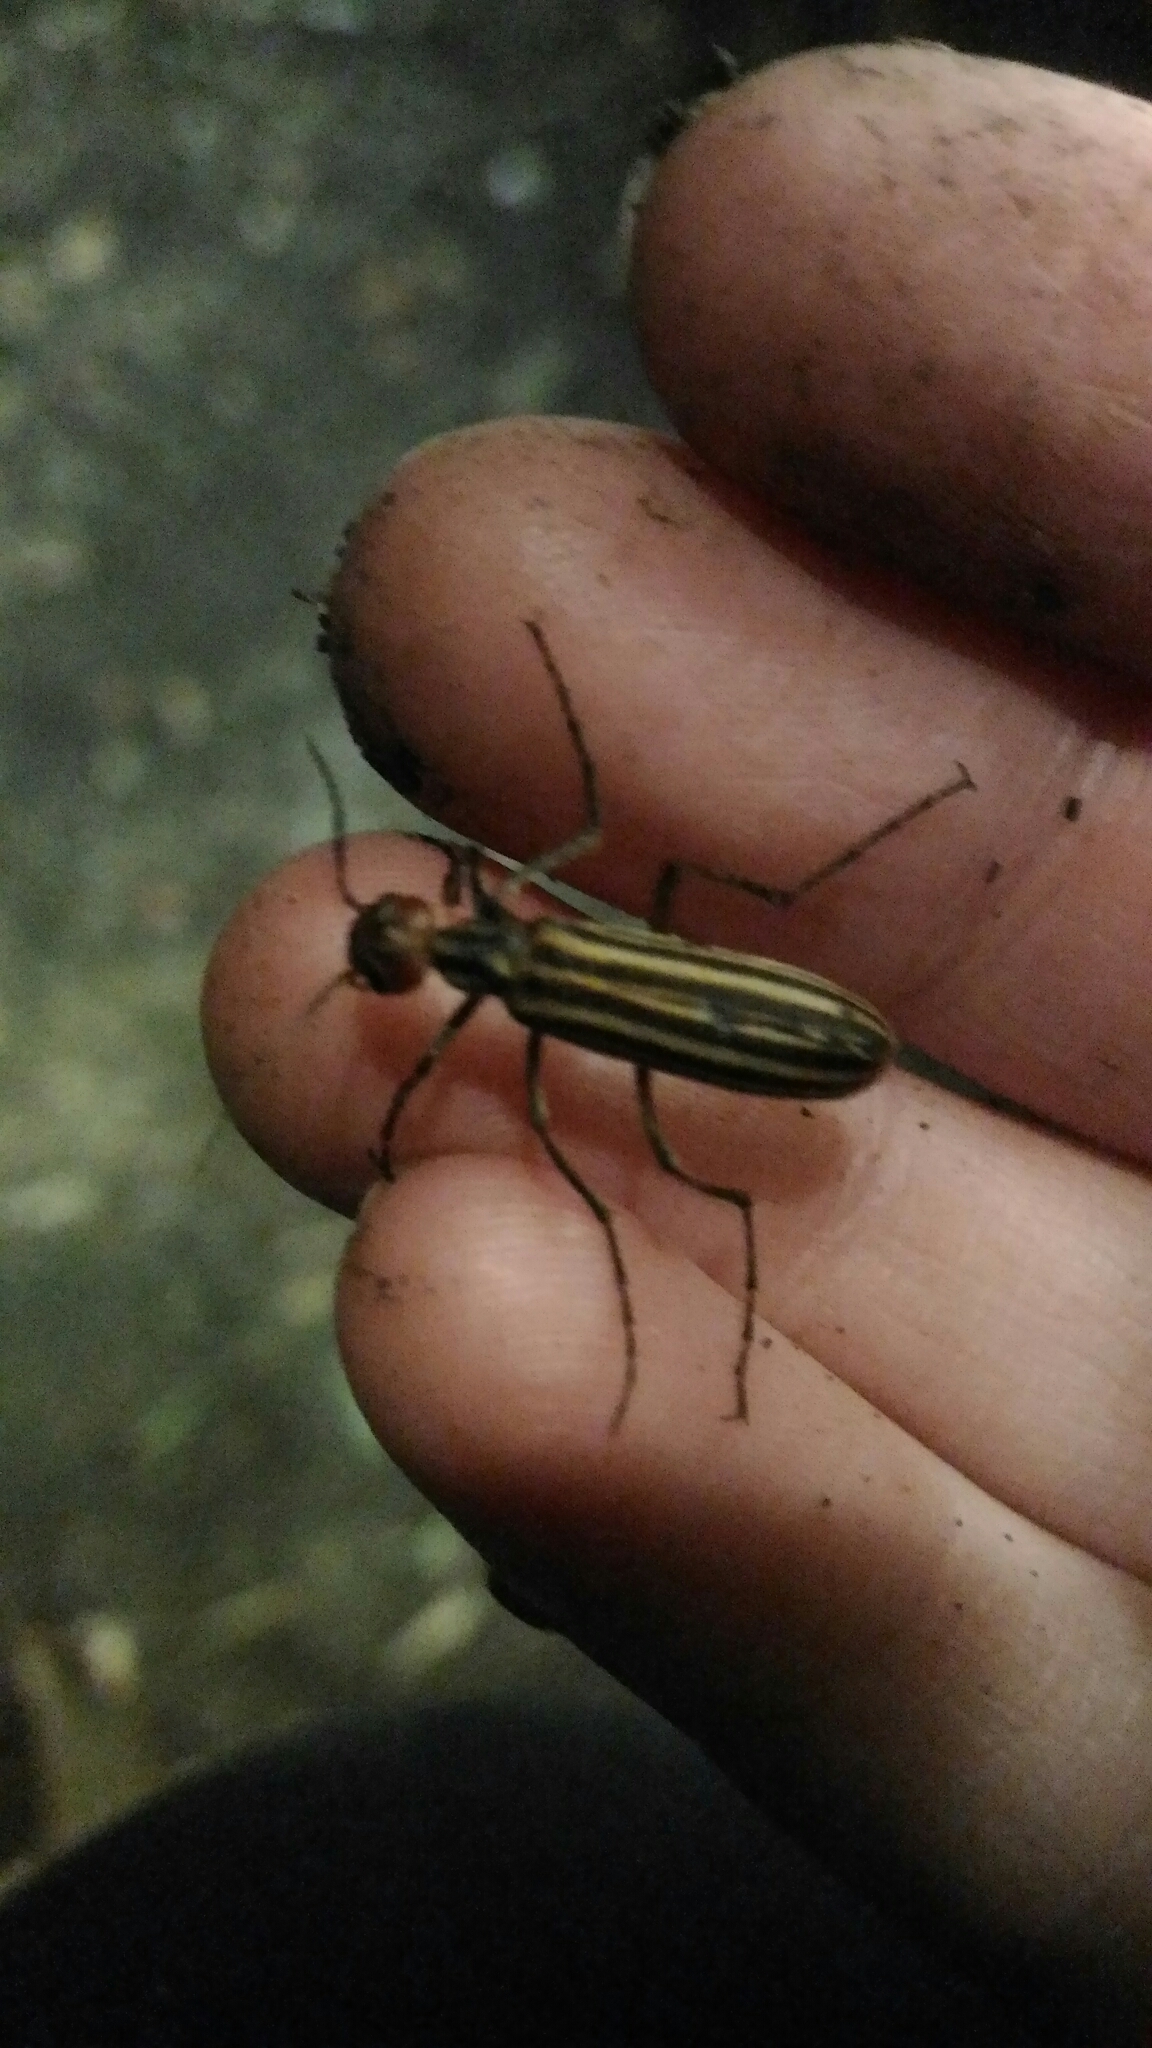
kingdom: Animalia
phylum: Arthropoda
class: Insecta
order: Coleoptera
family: Meloidae
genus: Epicauta
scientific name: Epicauta vittata
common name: Old-fashioned potato beetle
